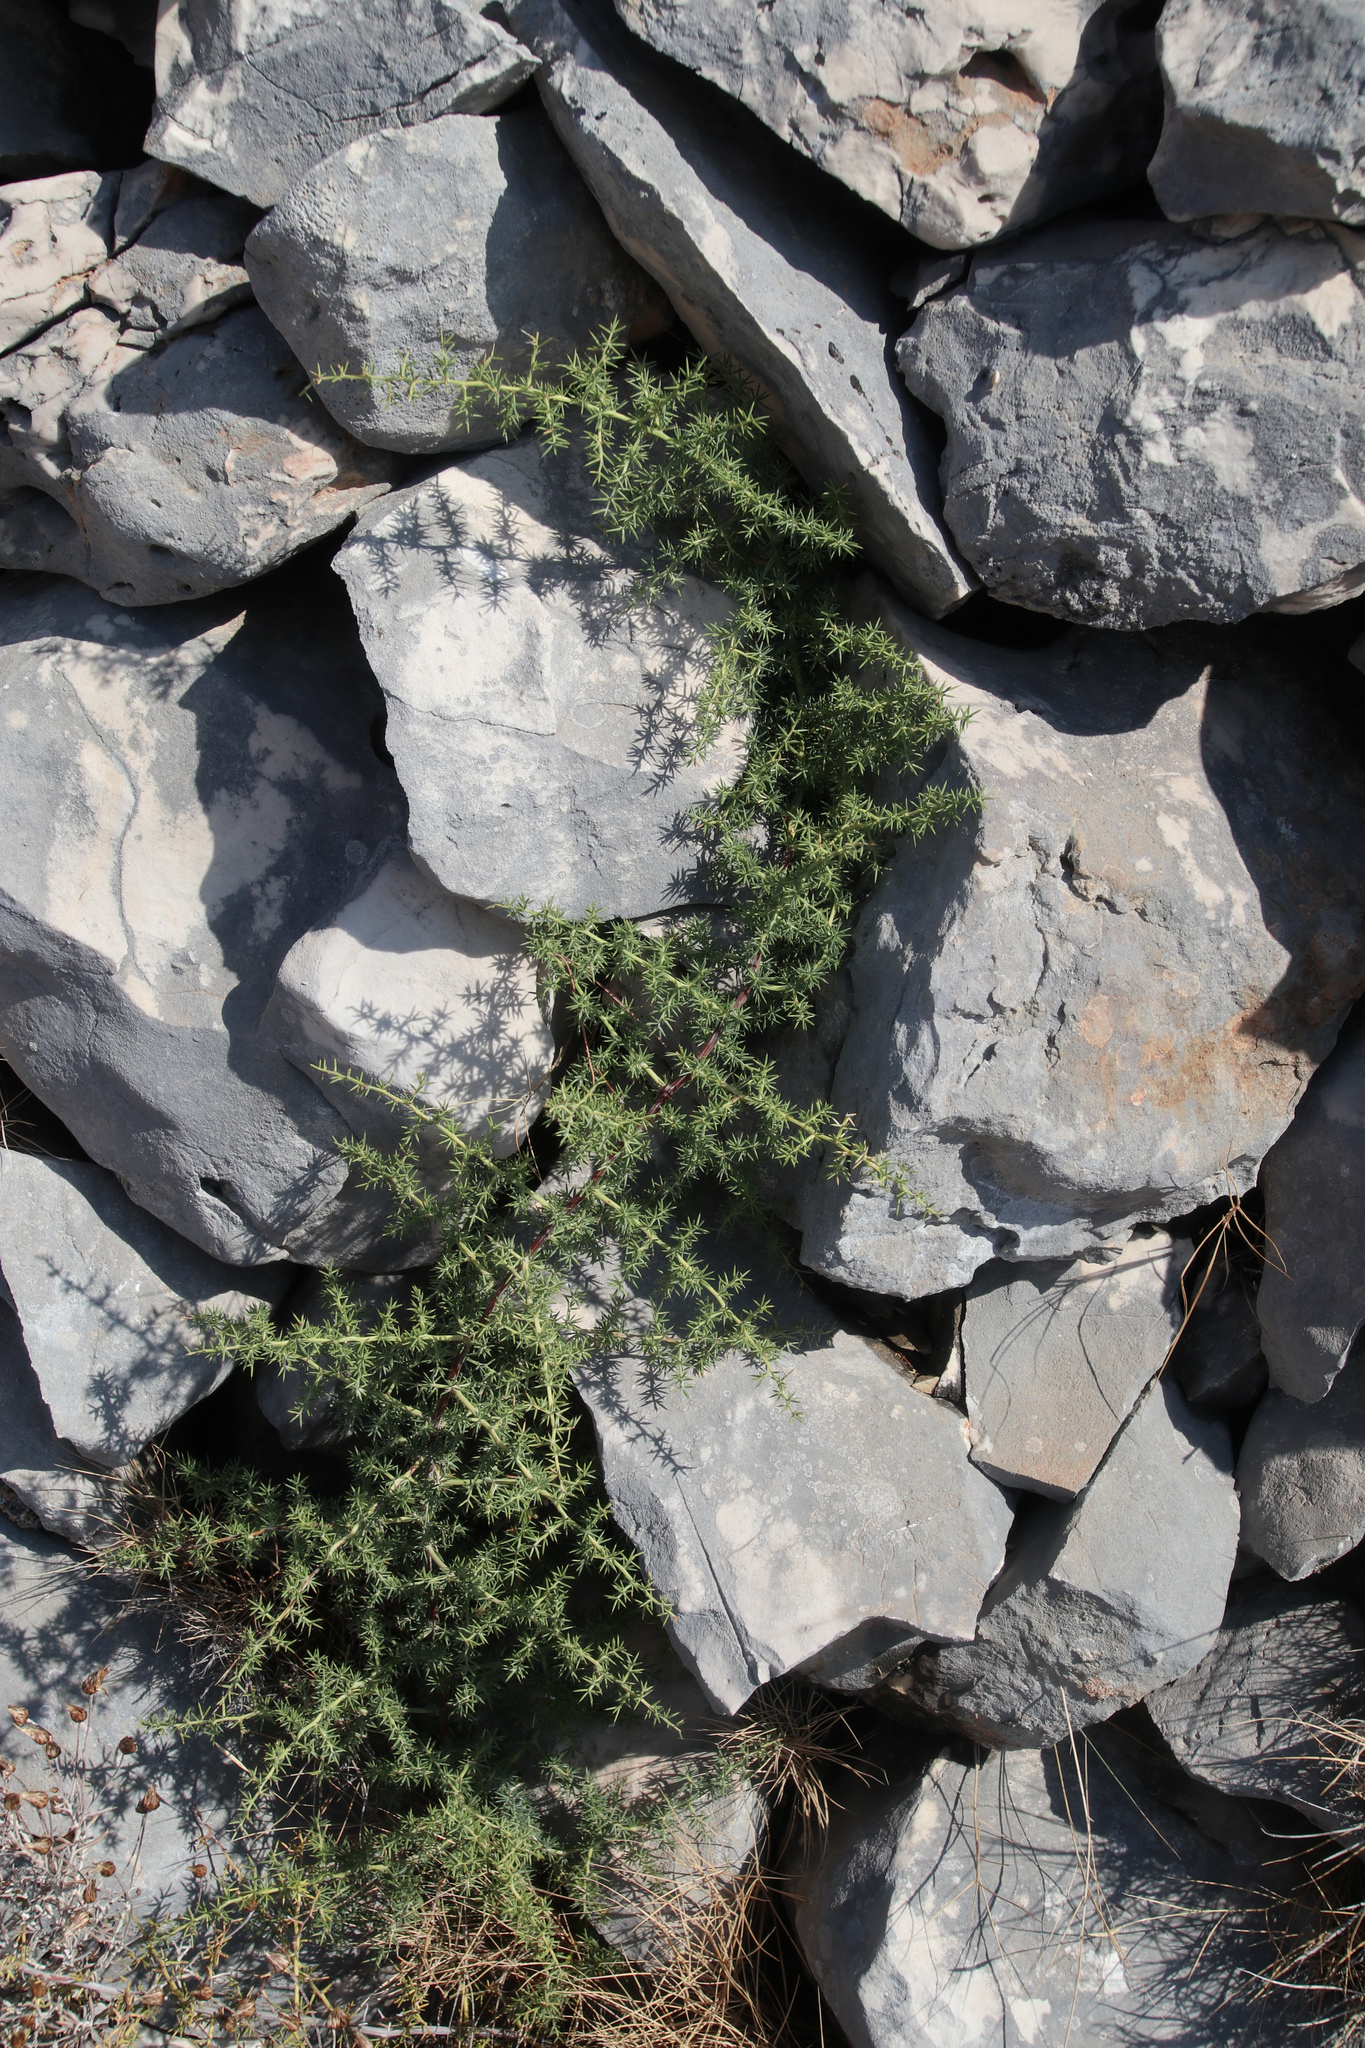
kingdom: Plantae
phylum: Tracheophyta
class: Liliopsida
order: Asparagales
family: Asparagaceae
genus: Asparagus
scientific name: Asparagus acutifolius
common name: Wild asparagus
